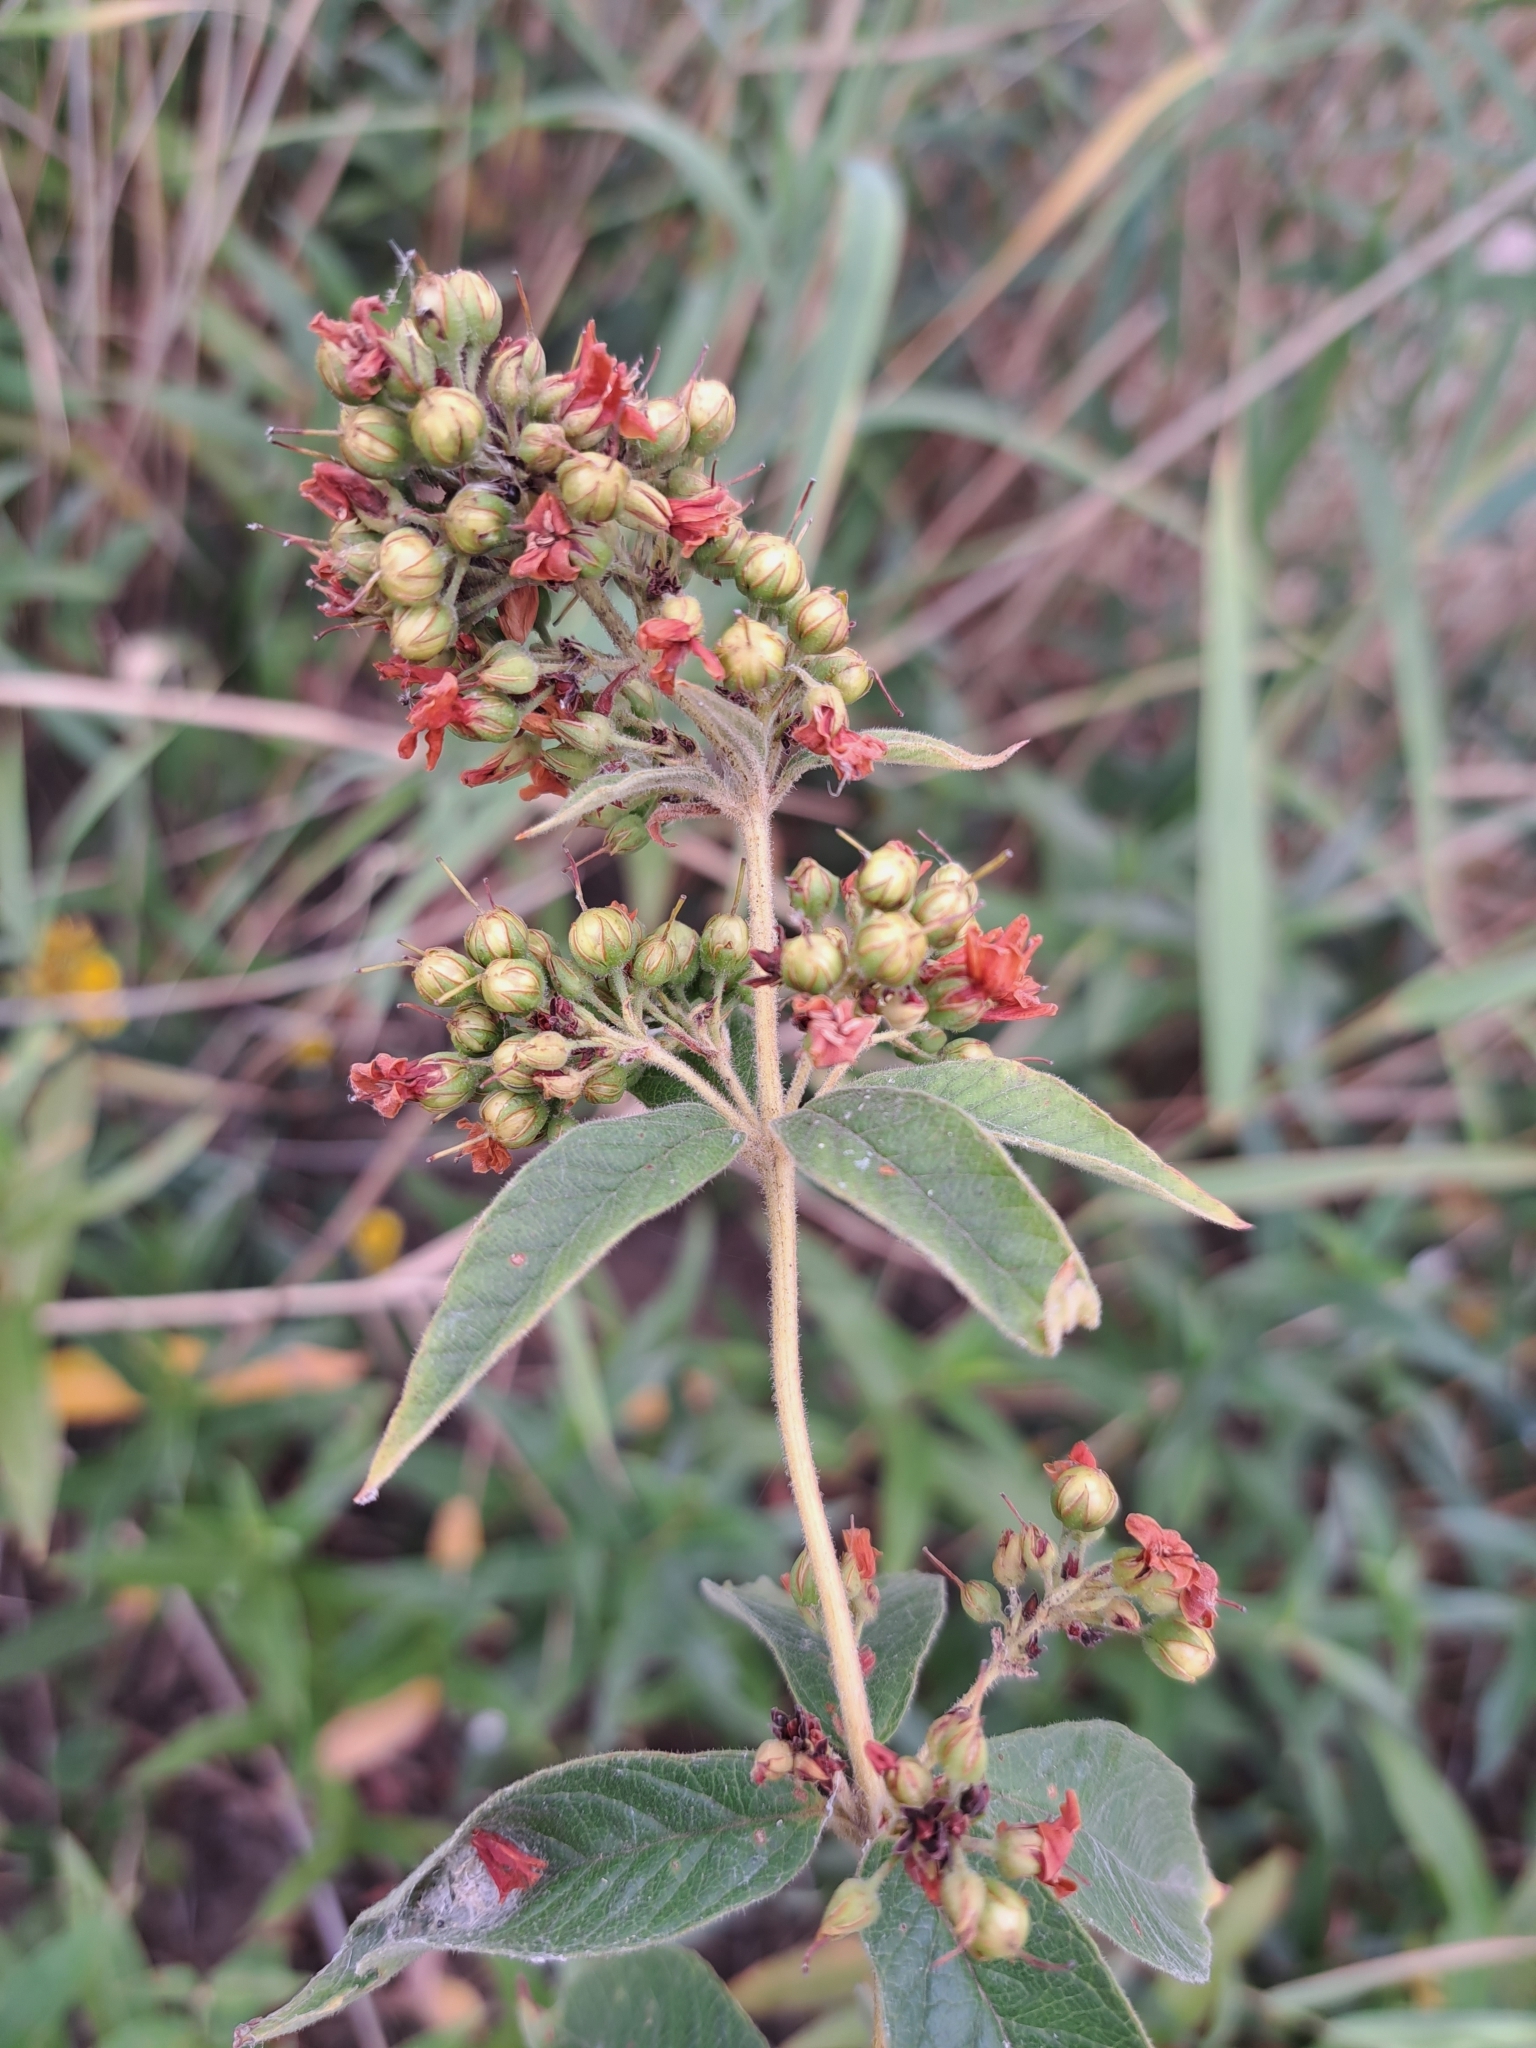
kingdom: Plantae
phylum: Tracheophyta
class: Magnoliopsida
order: Ericales
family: Primulaceae
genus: Lysimachia
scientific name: Lysimachia vulgaris
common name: Yellow loosestrife
